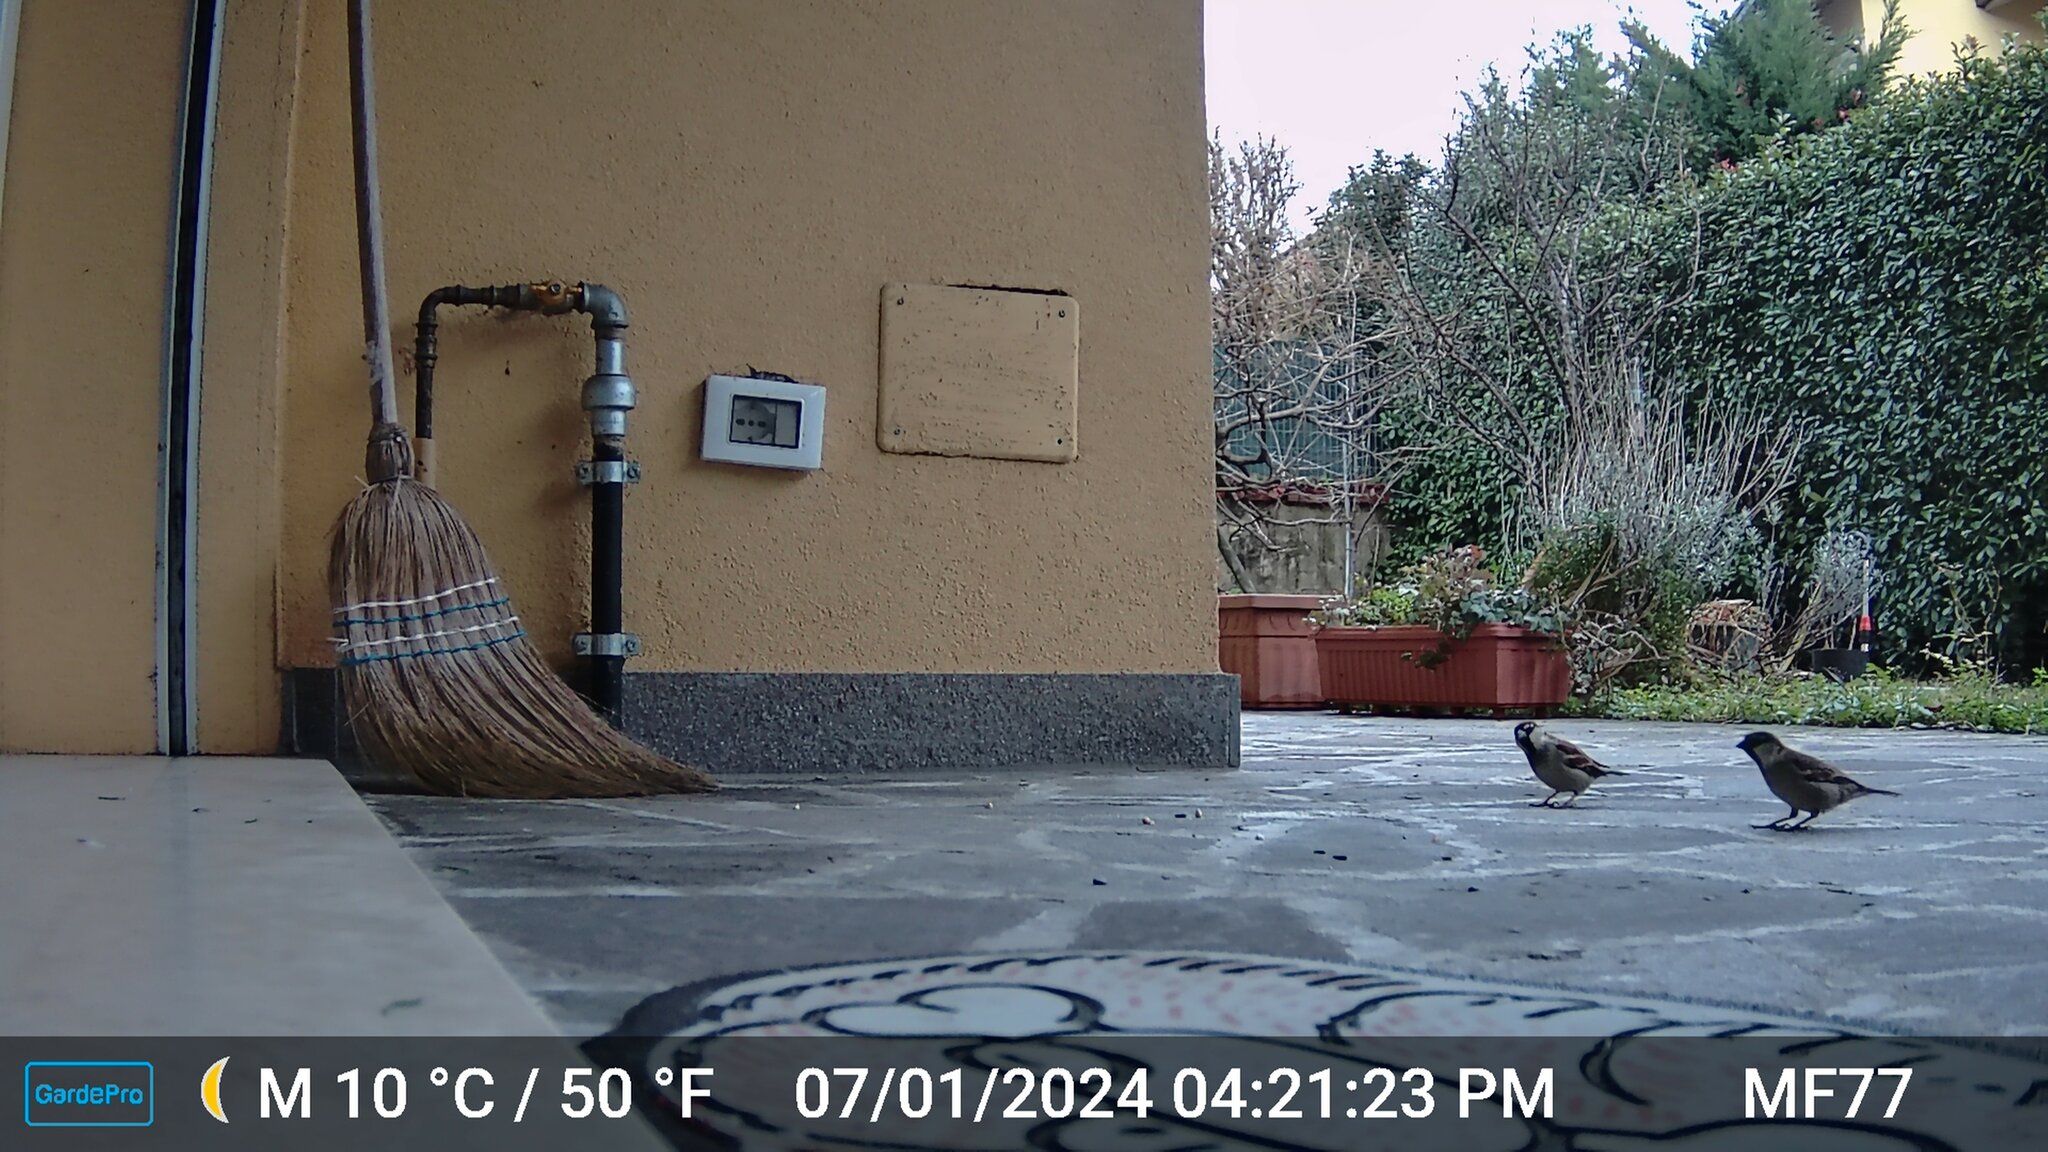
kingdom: Animalia
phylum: Chordata
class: Aves
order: Passeriformes
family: Passeridae
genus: Passer
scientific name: Passer italiae
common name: Italian sparrow
